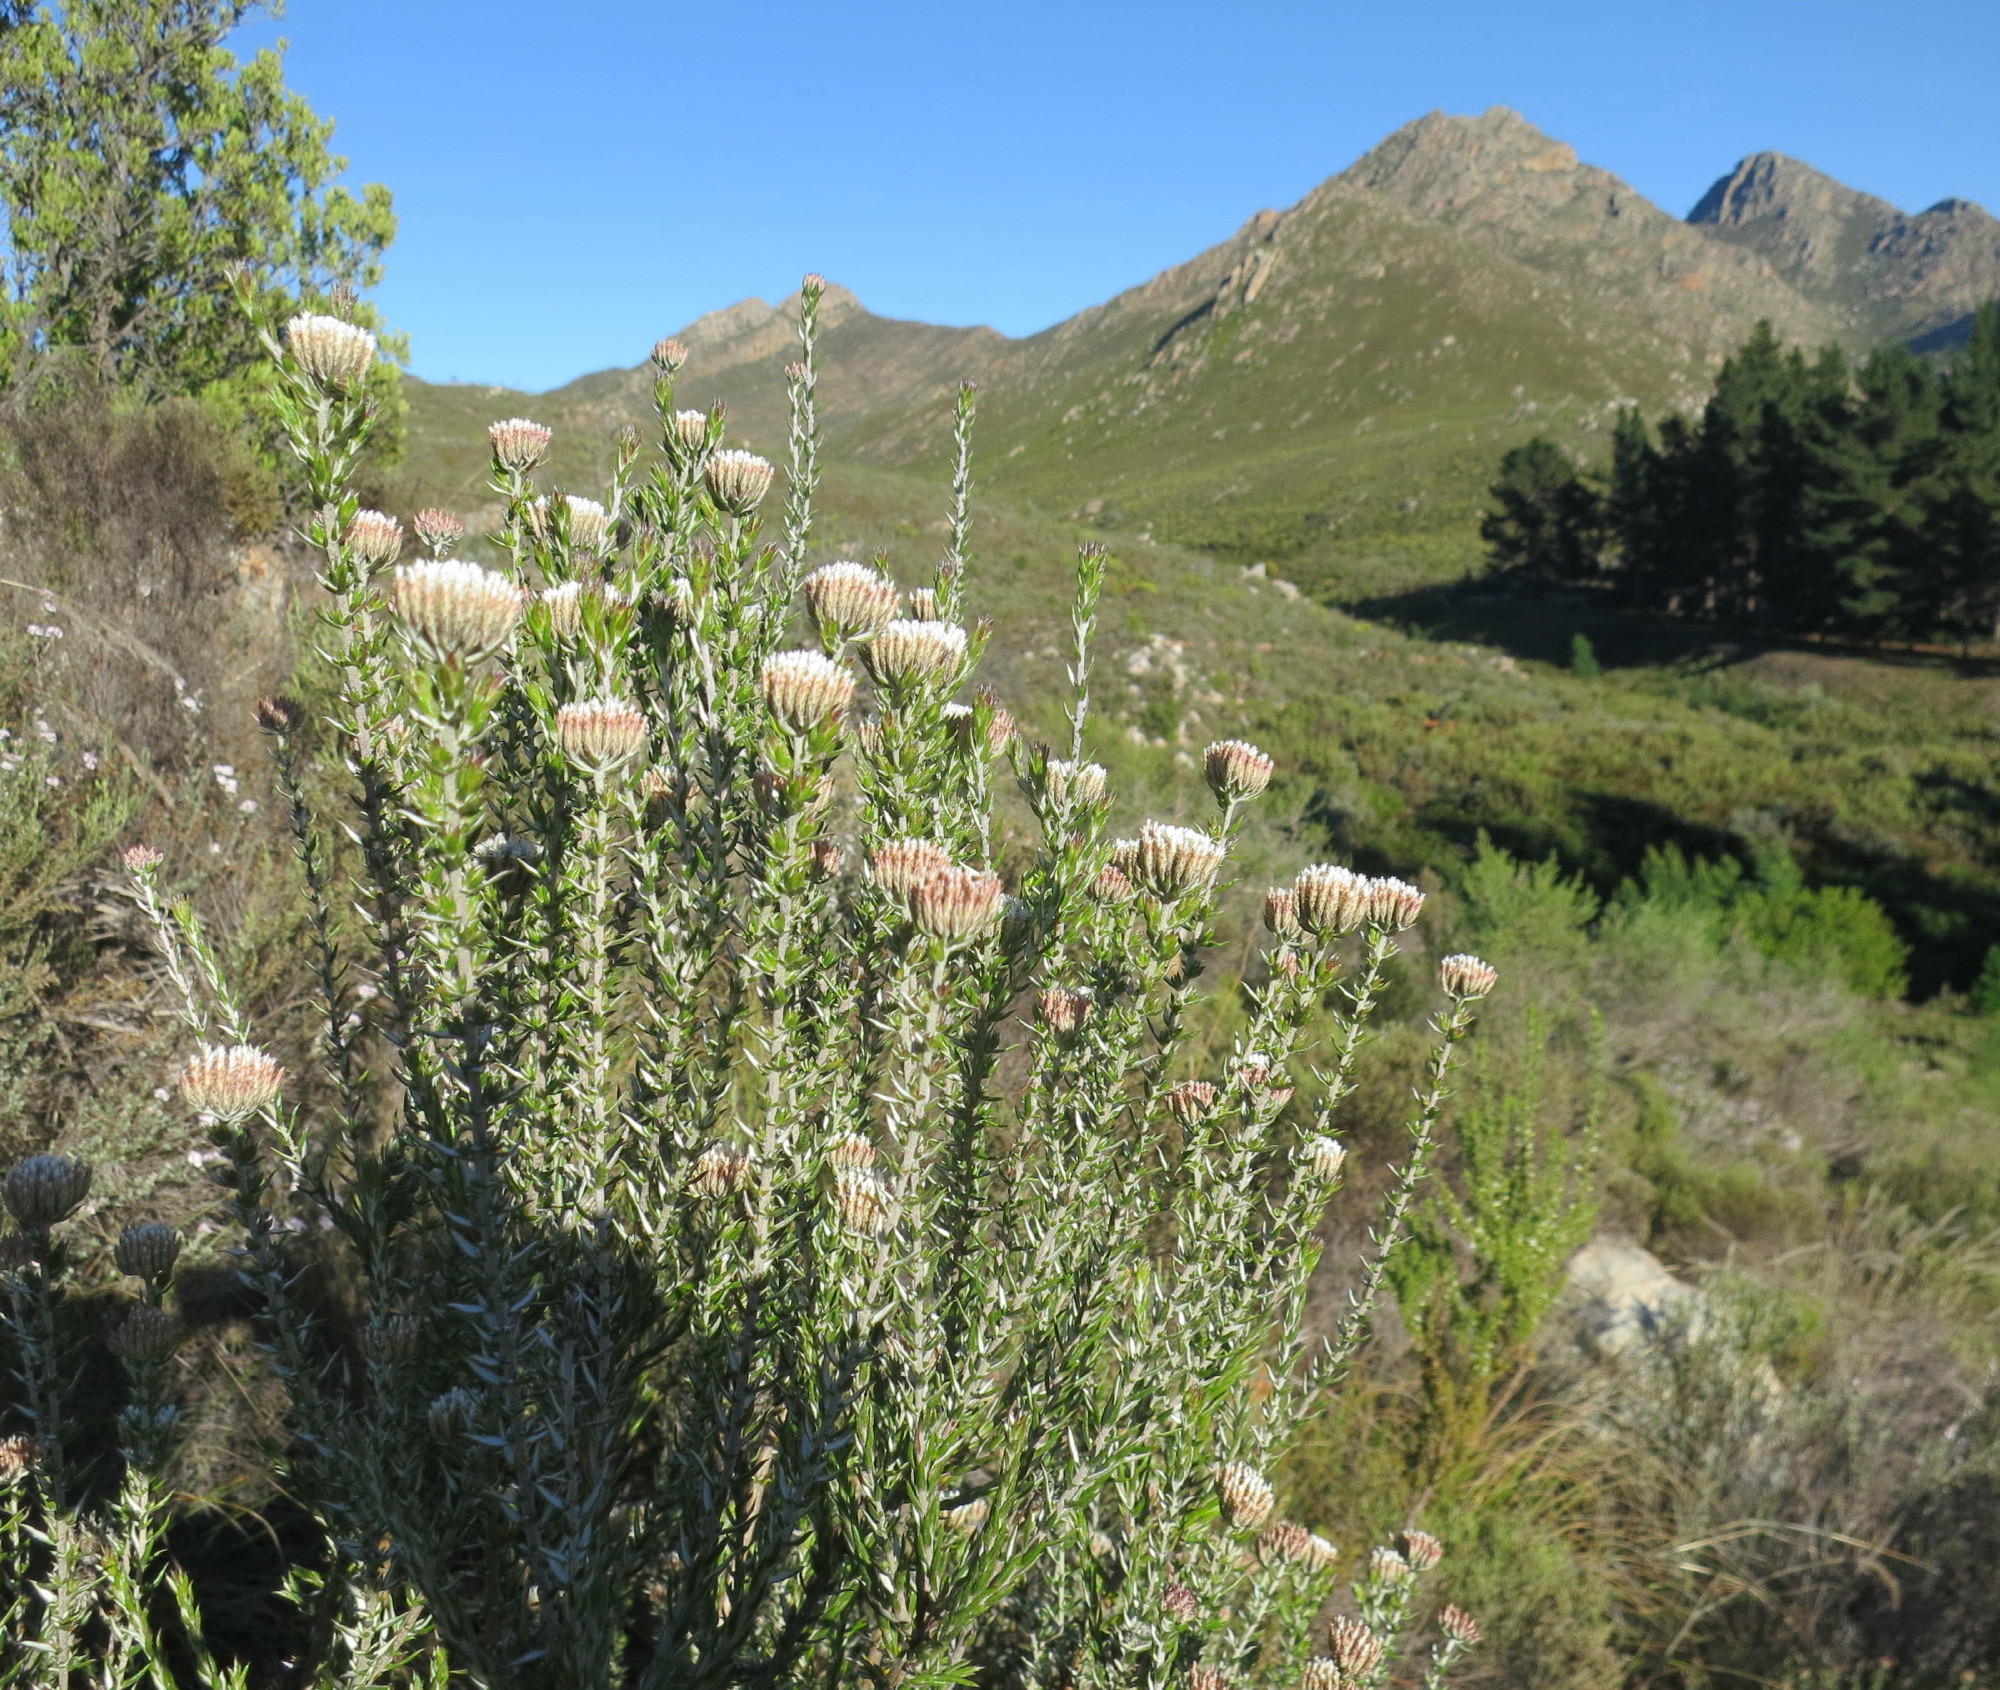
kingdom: Plantae
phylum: Tracheophyta
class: Magnoliopsida
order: Asterales
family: Asteraceae
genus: Metalasia
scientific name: Metalasia densa
